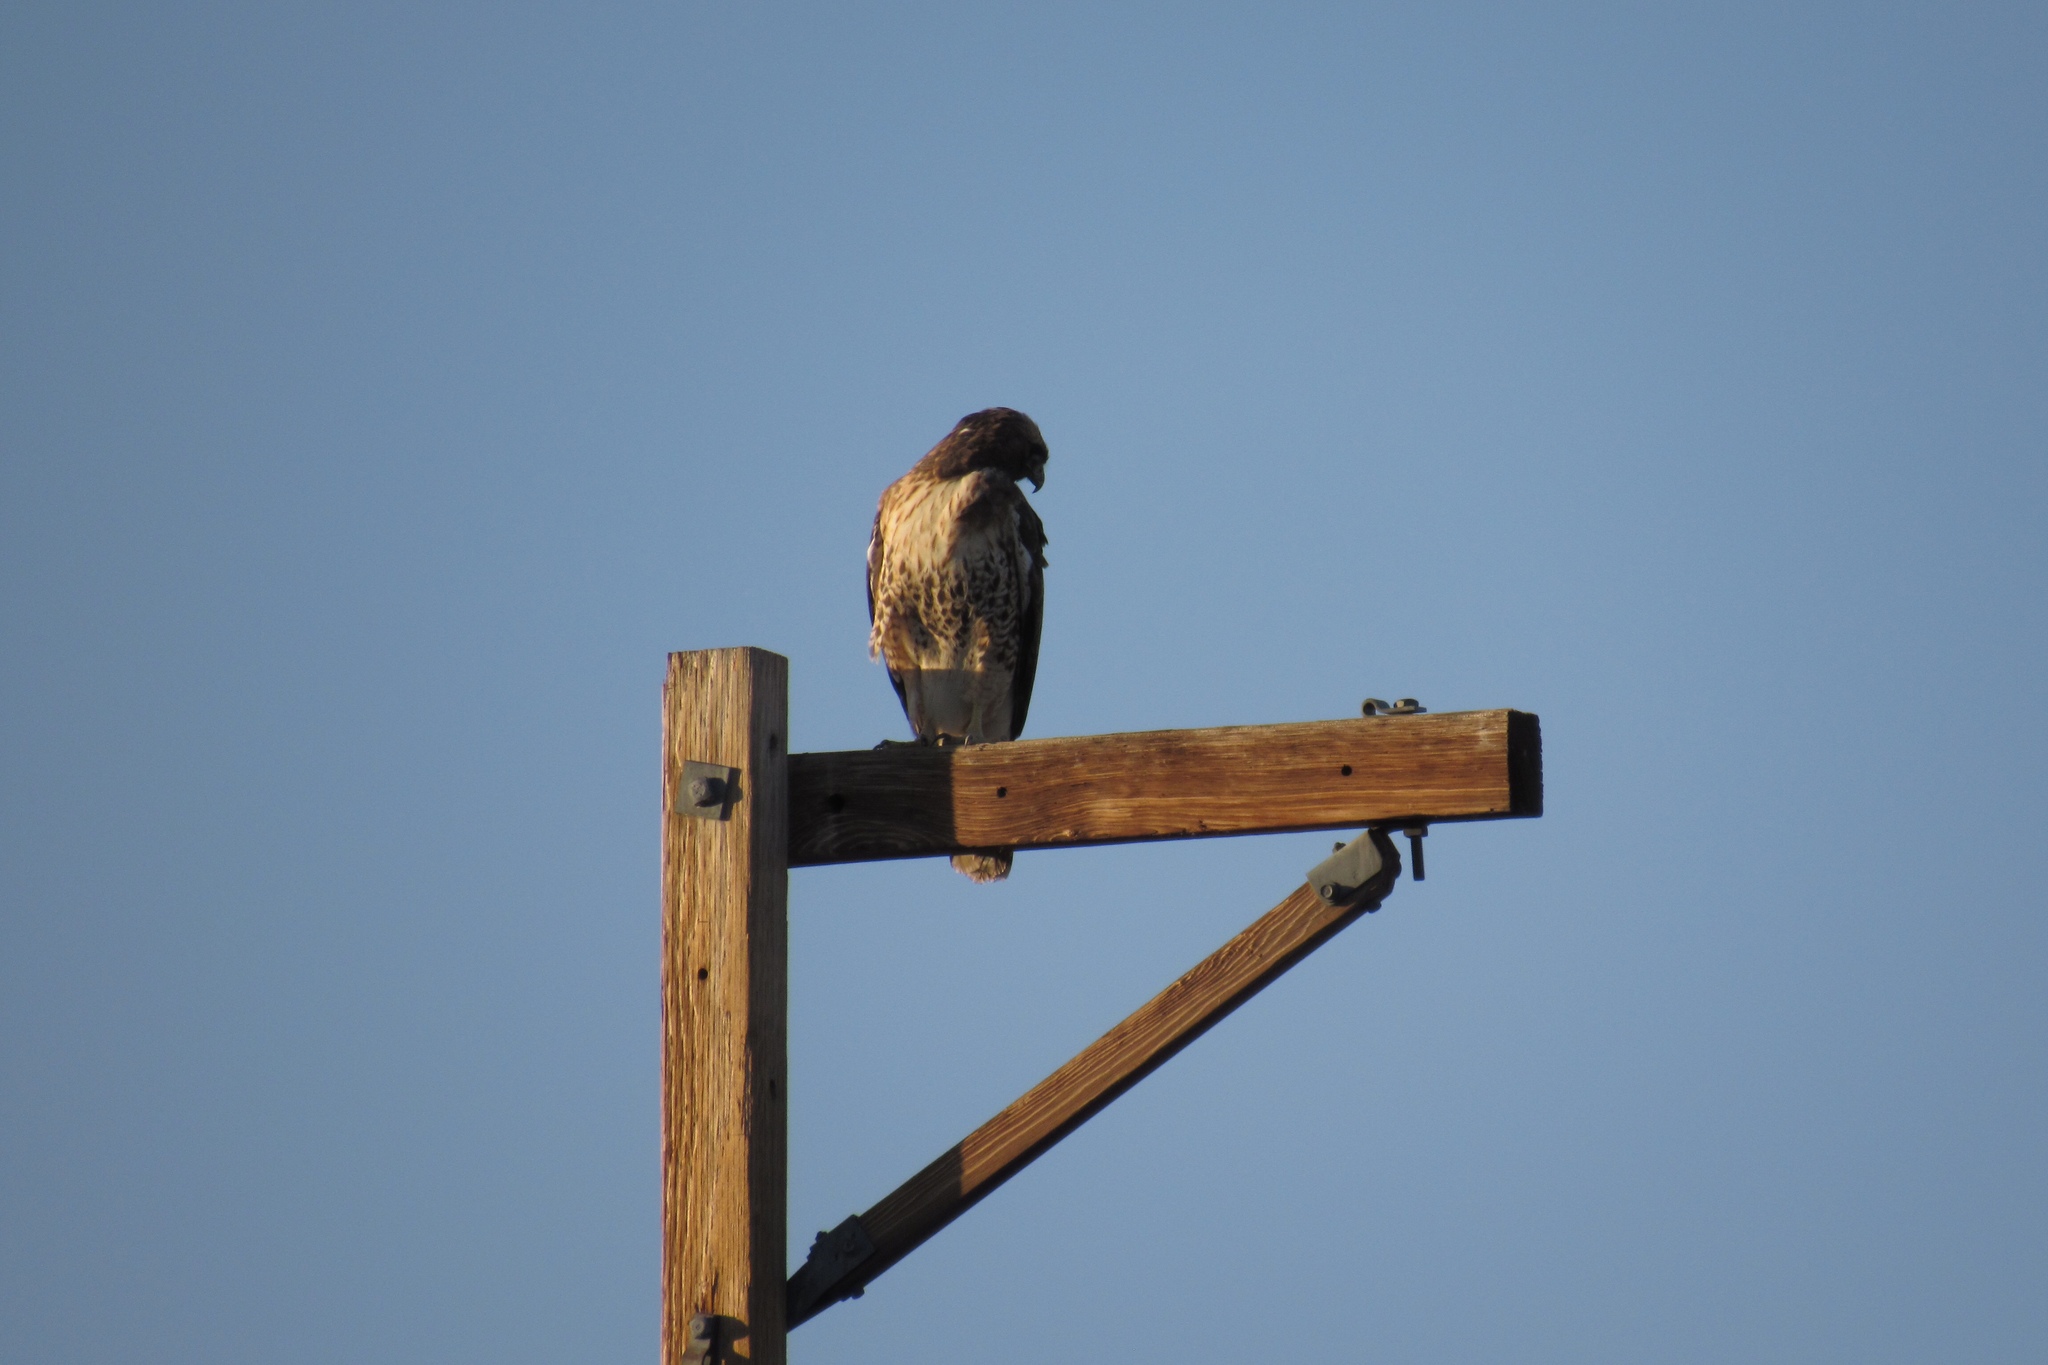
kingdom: Animalia
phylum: Chordata
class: Aves
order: Accipitriformes
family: Accipitridae
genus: Buteo
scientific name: Buteo jamaicensis
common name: Red-tailed hawk
